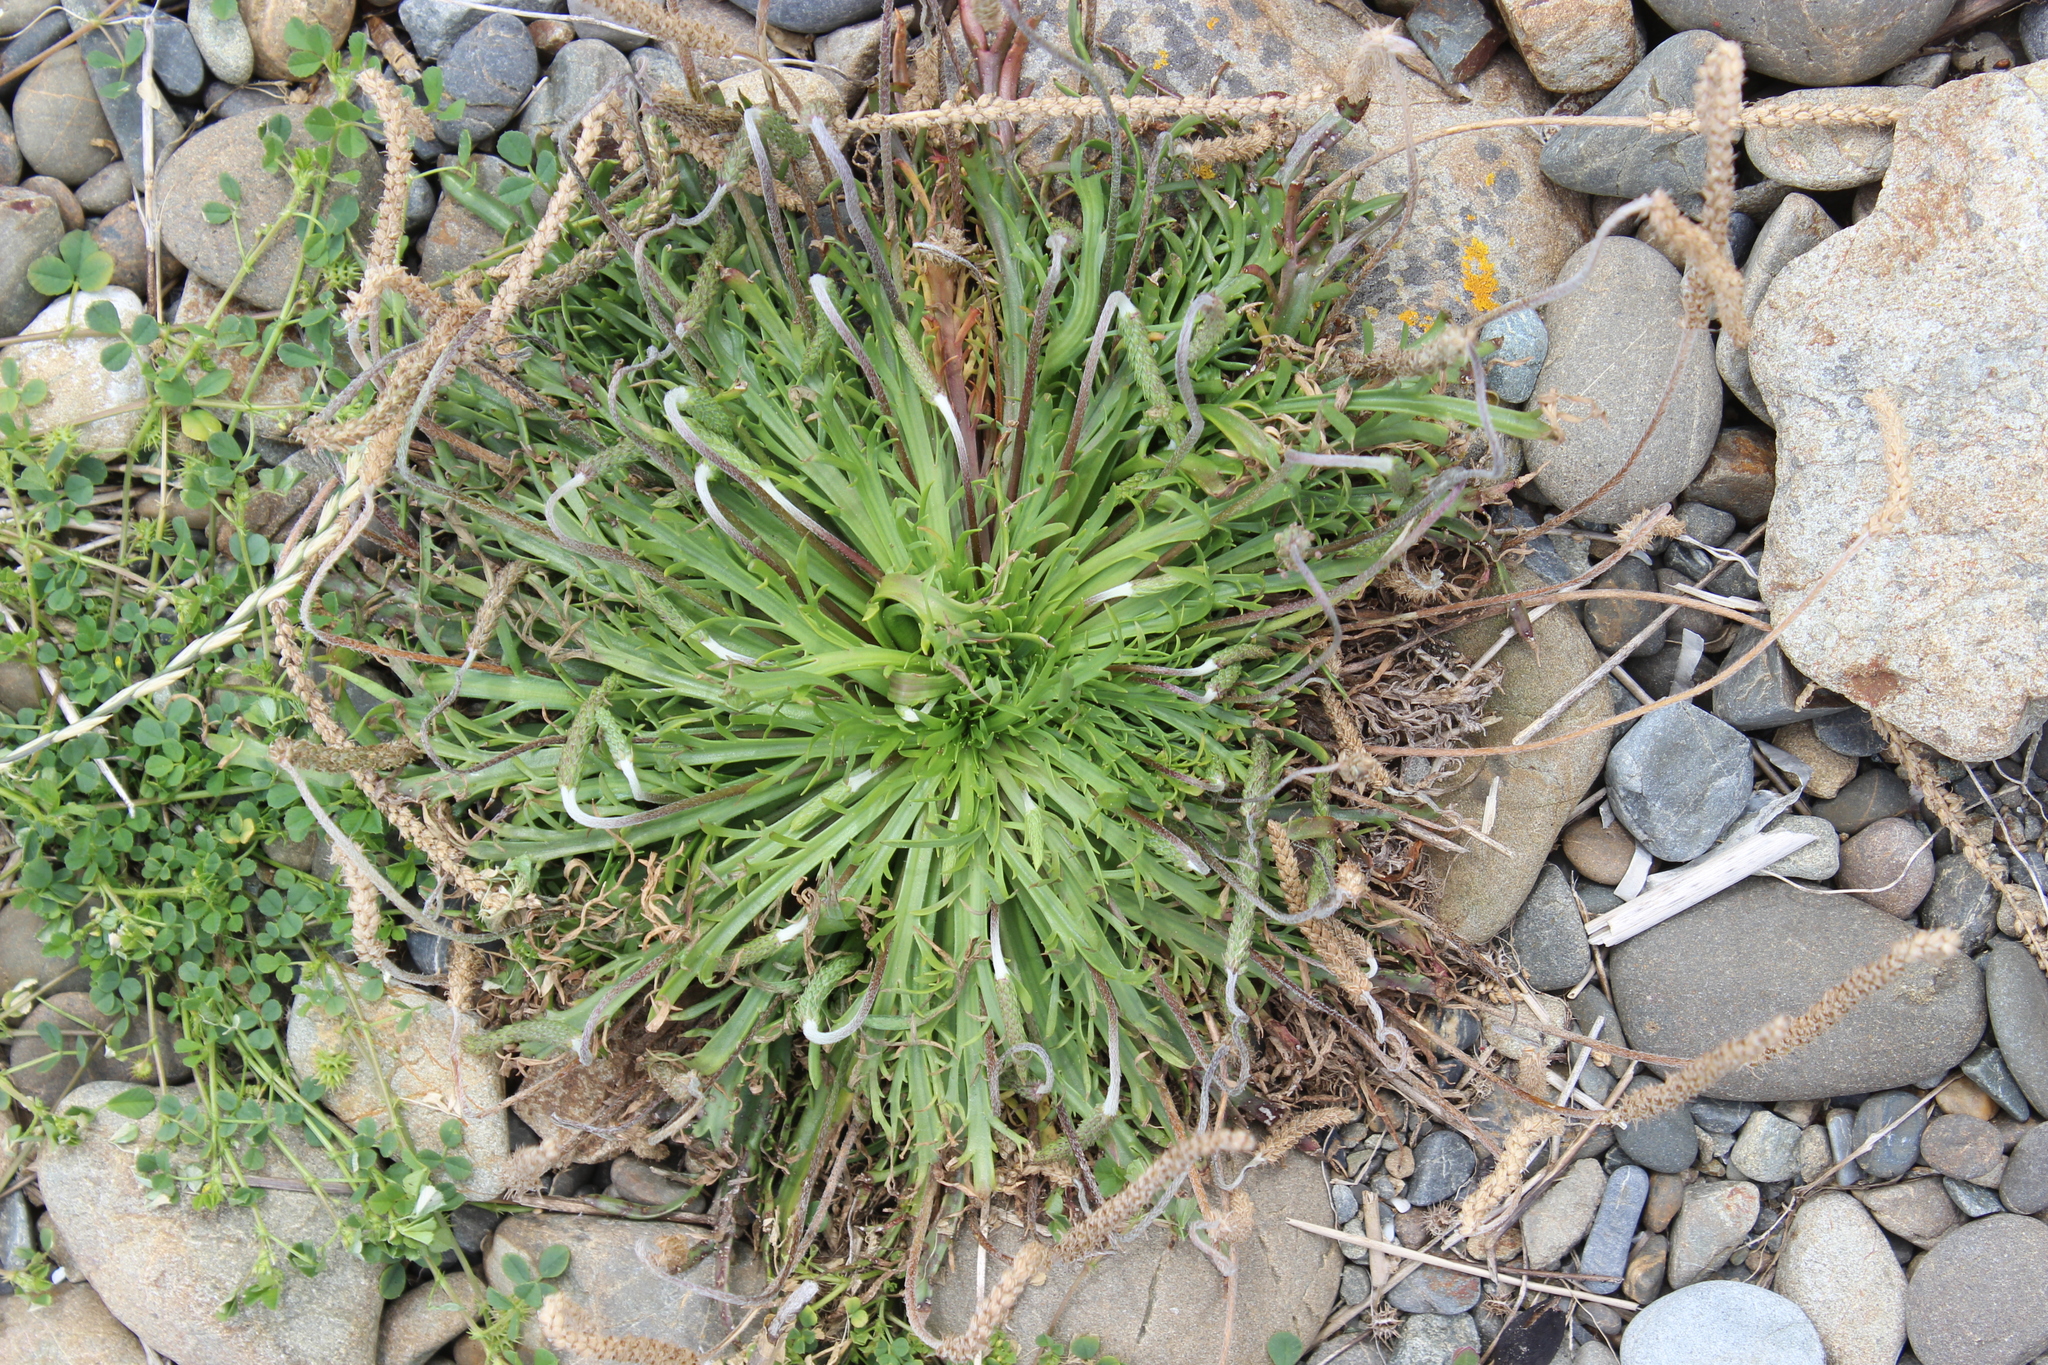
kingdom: Plantae
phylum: Tracheophyta
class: Magnoliopsida
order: Lamiales
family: Plantaginaceae
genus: Plantago
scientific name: Plantago coronopus
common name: Buck's-horn plantain
